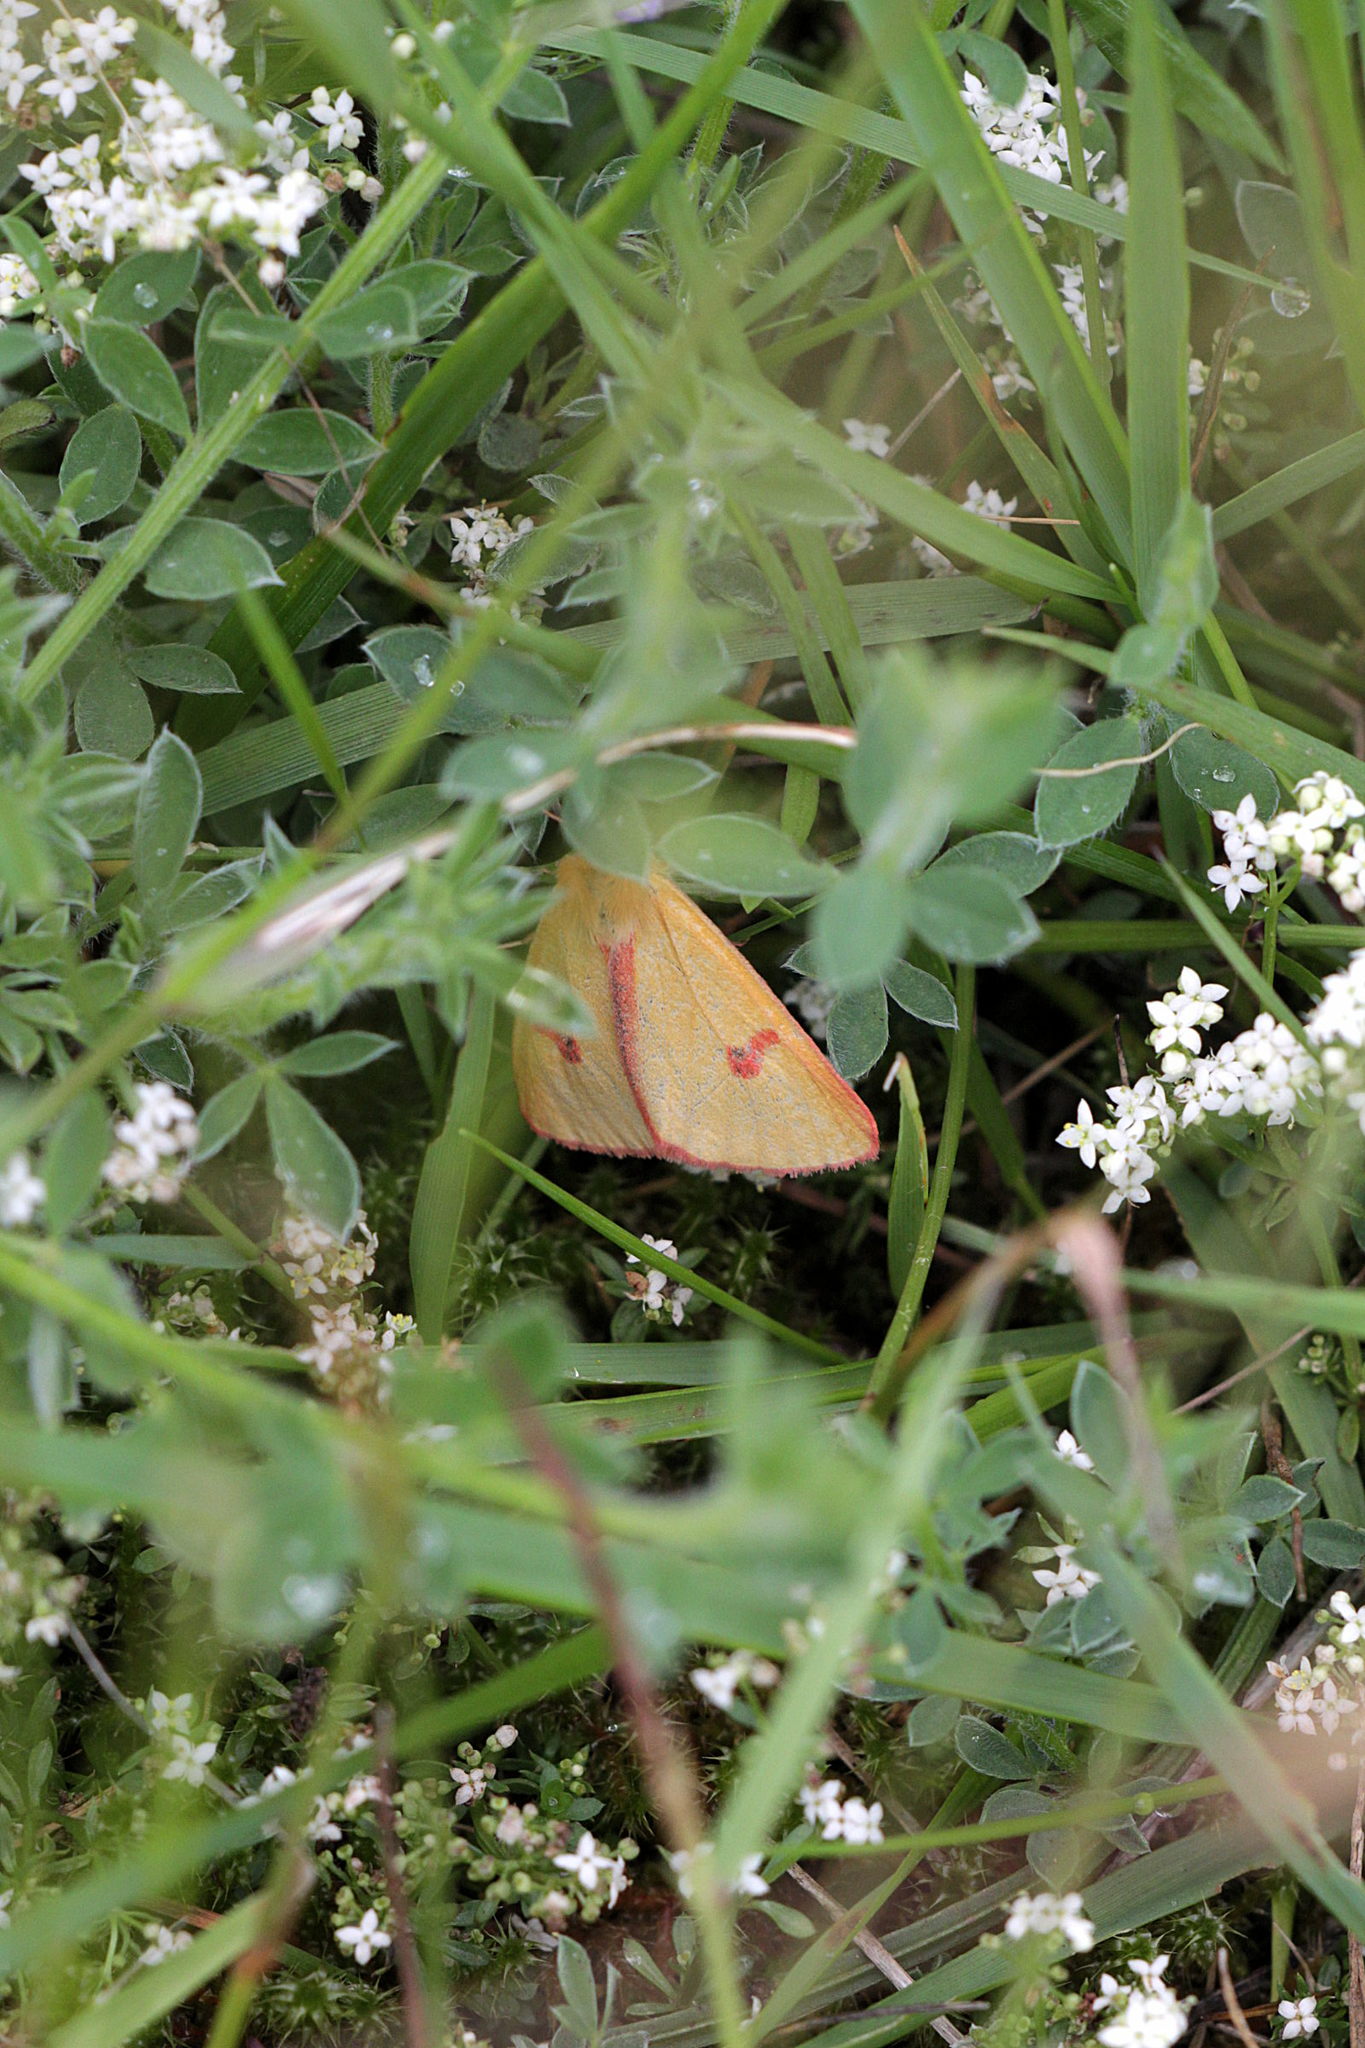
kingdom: Animalia
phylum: Arthropoda
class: Insecta
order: Lepidoptera
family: Erebidae
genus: Diacrisia
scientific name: Diacrisia sannio
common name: Clouded buff
